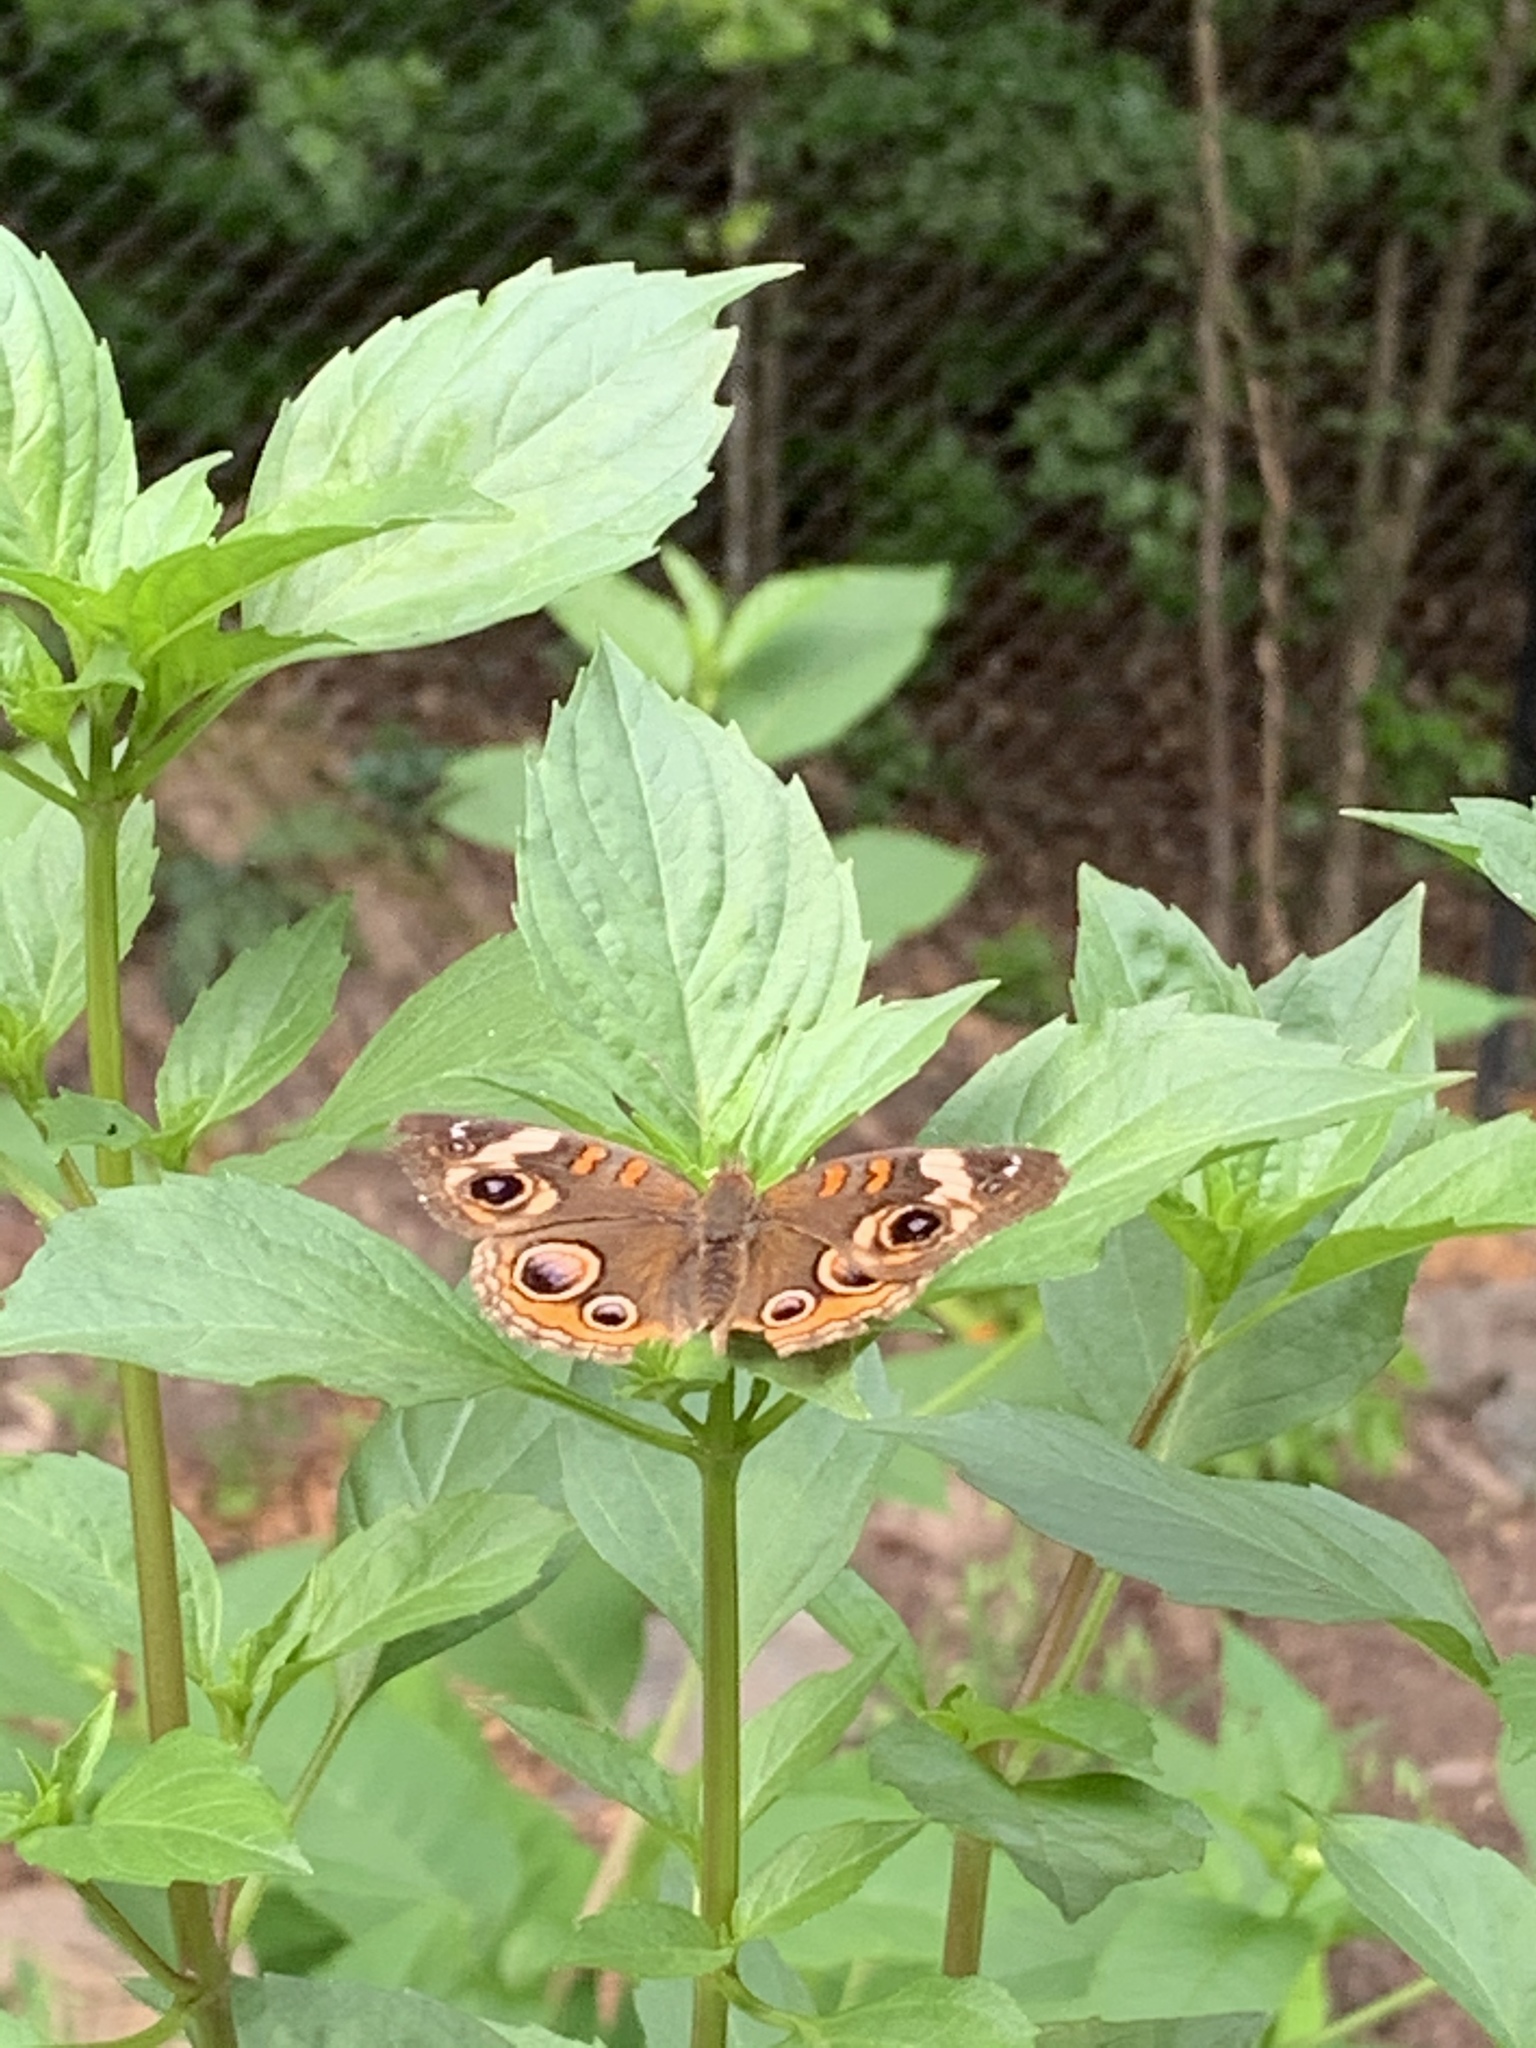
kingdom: Animalia
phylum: Arthropoda
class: Insecta
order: Lepidoptera
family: Nymphalidae
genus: Junonia
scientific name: Junonia coenia
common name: Common buckeye
